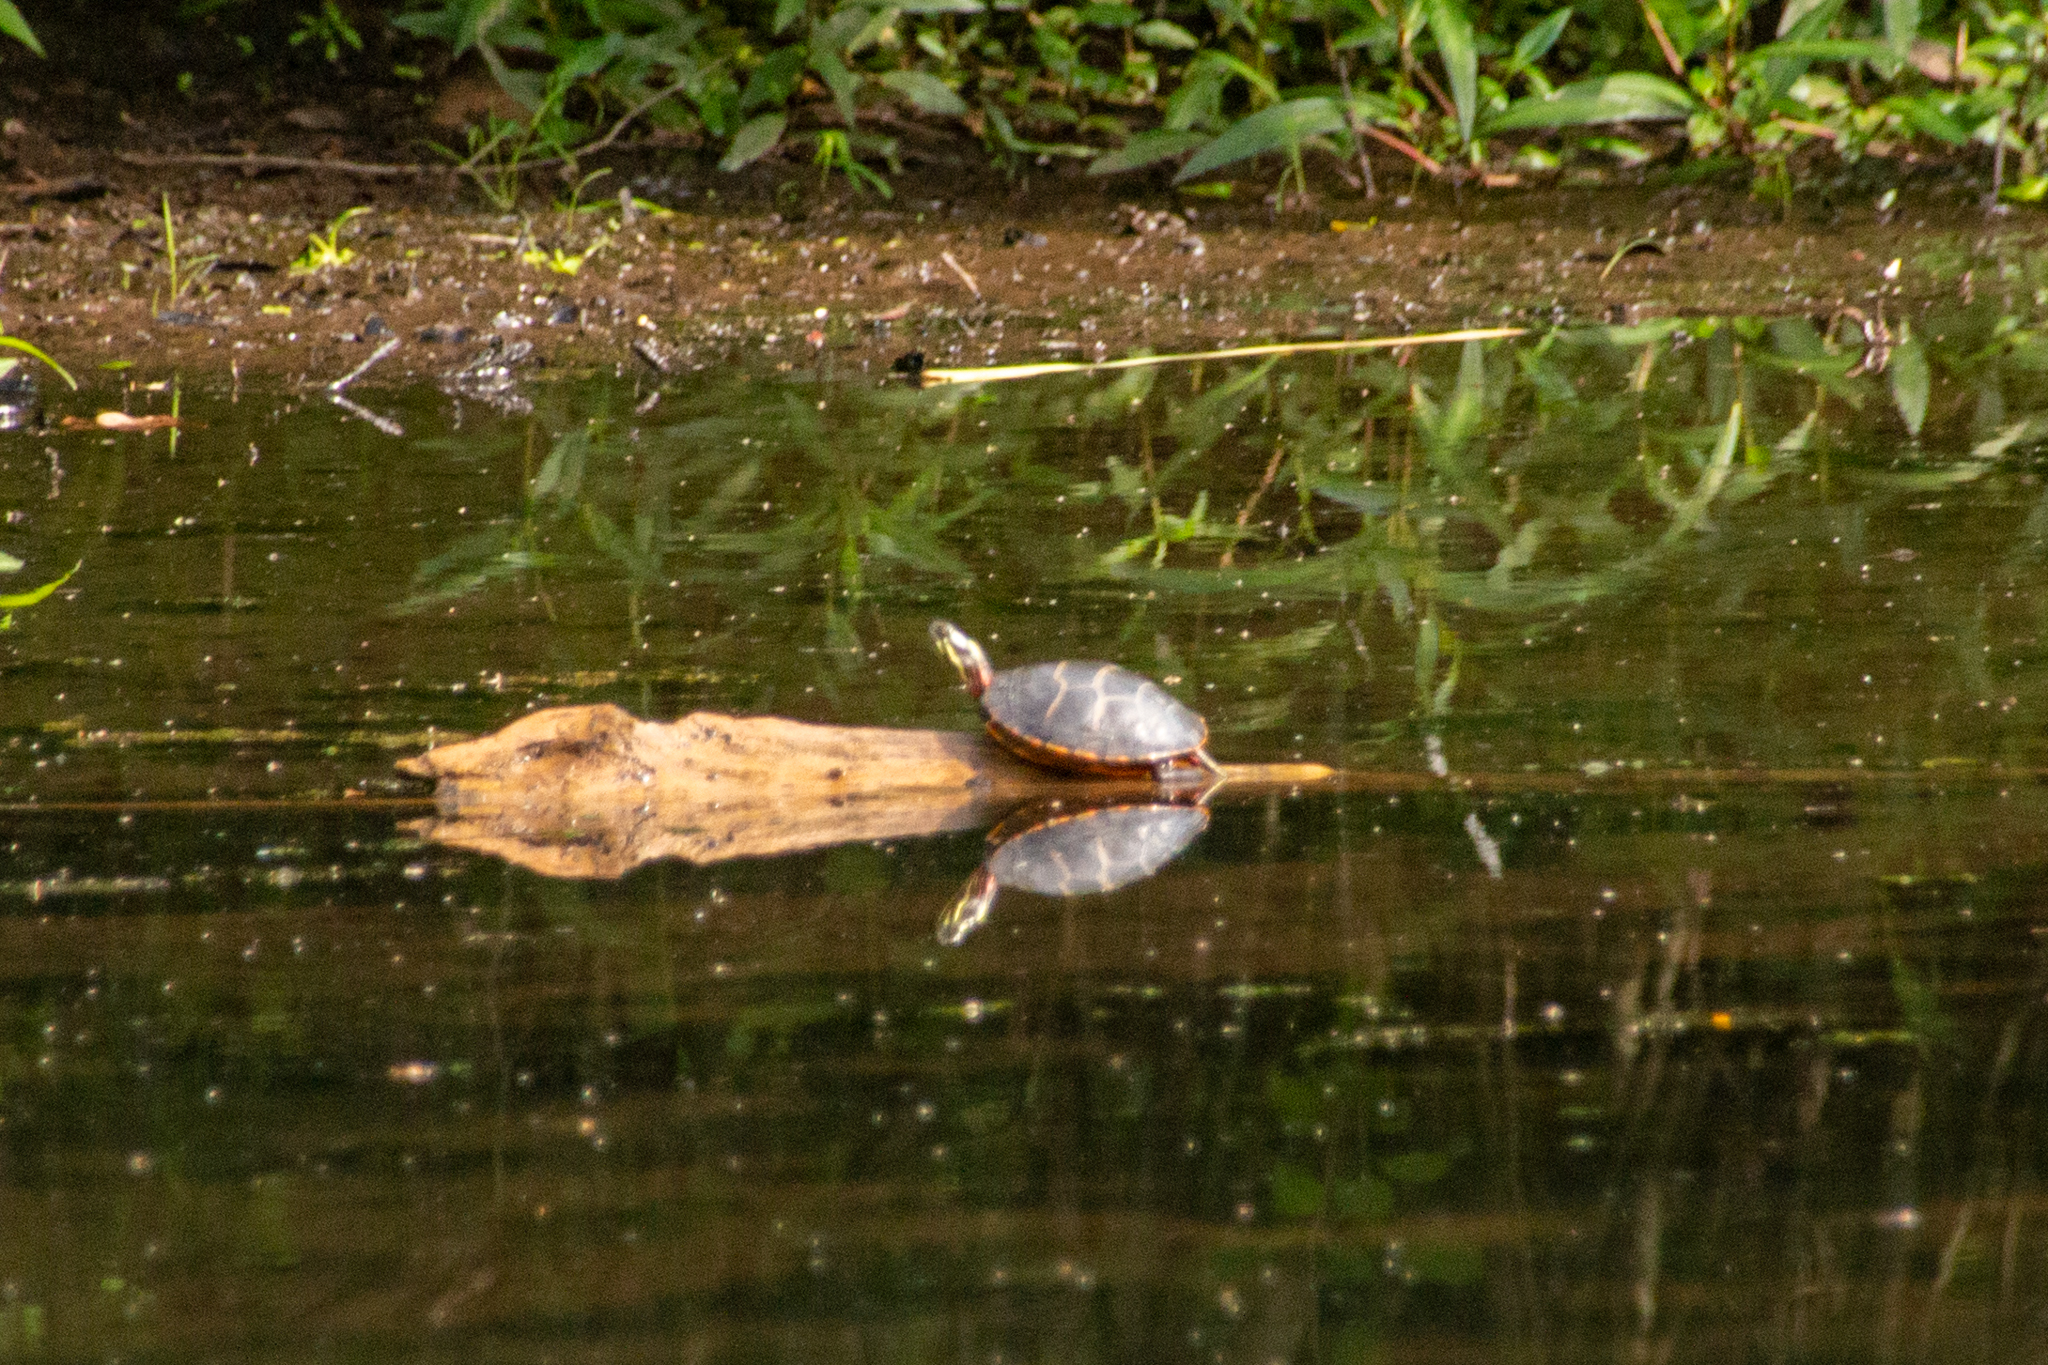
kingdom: Animalia
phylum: Chordata
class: Testudines
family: Emydidae
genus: Chrysemys
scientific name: Chrysemys picta
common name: Painted turtle
